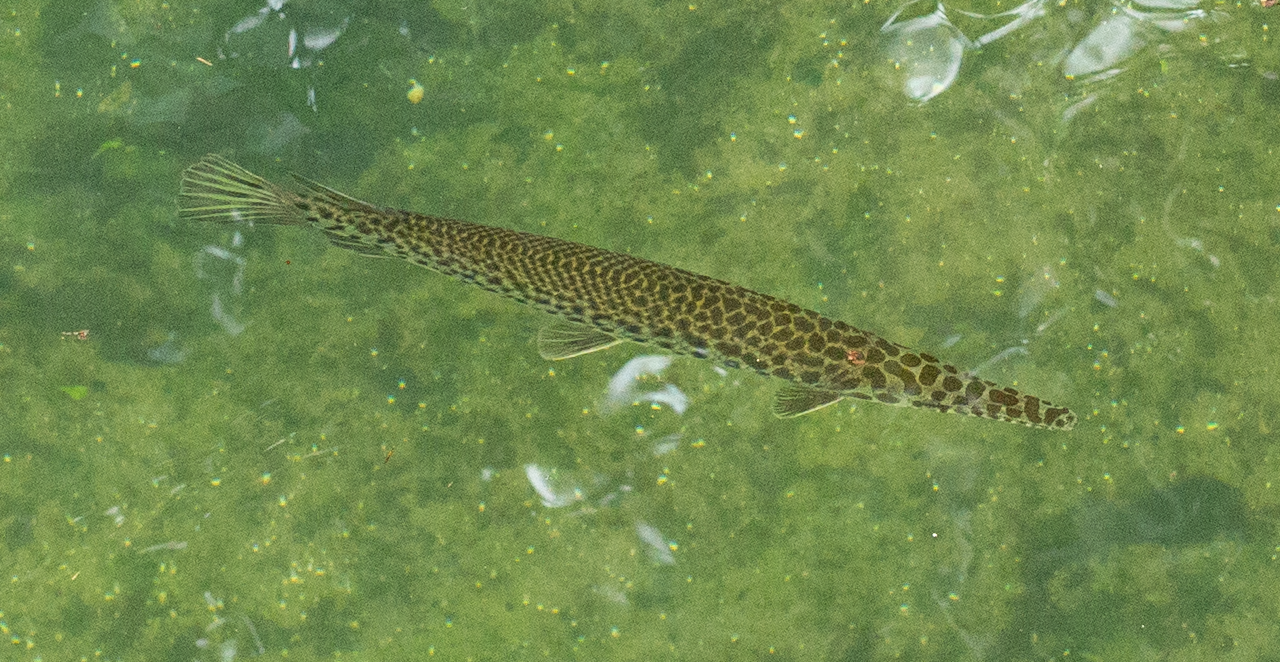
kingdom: Animalia
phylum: Chordata
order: Lepisosteiformes
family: Lepisosteidae
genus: Lepisosteus
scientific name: Lepisosteus platyrhincus
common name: Florida gar
